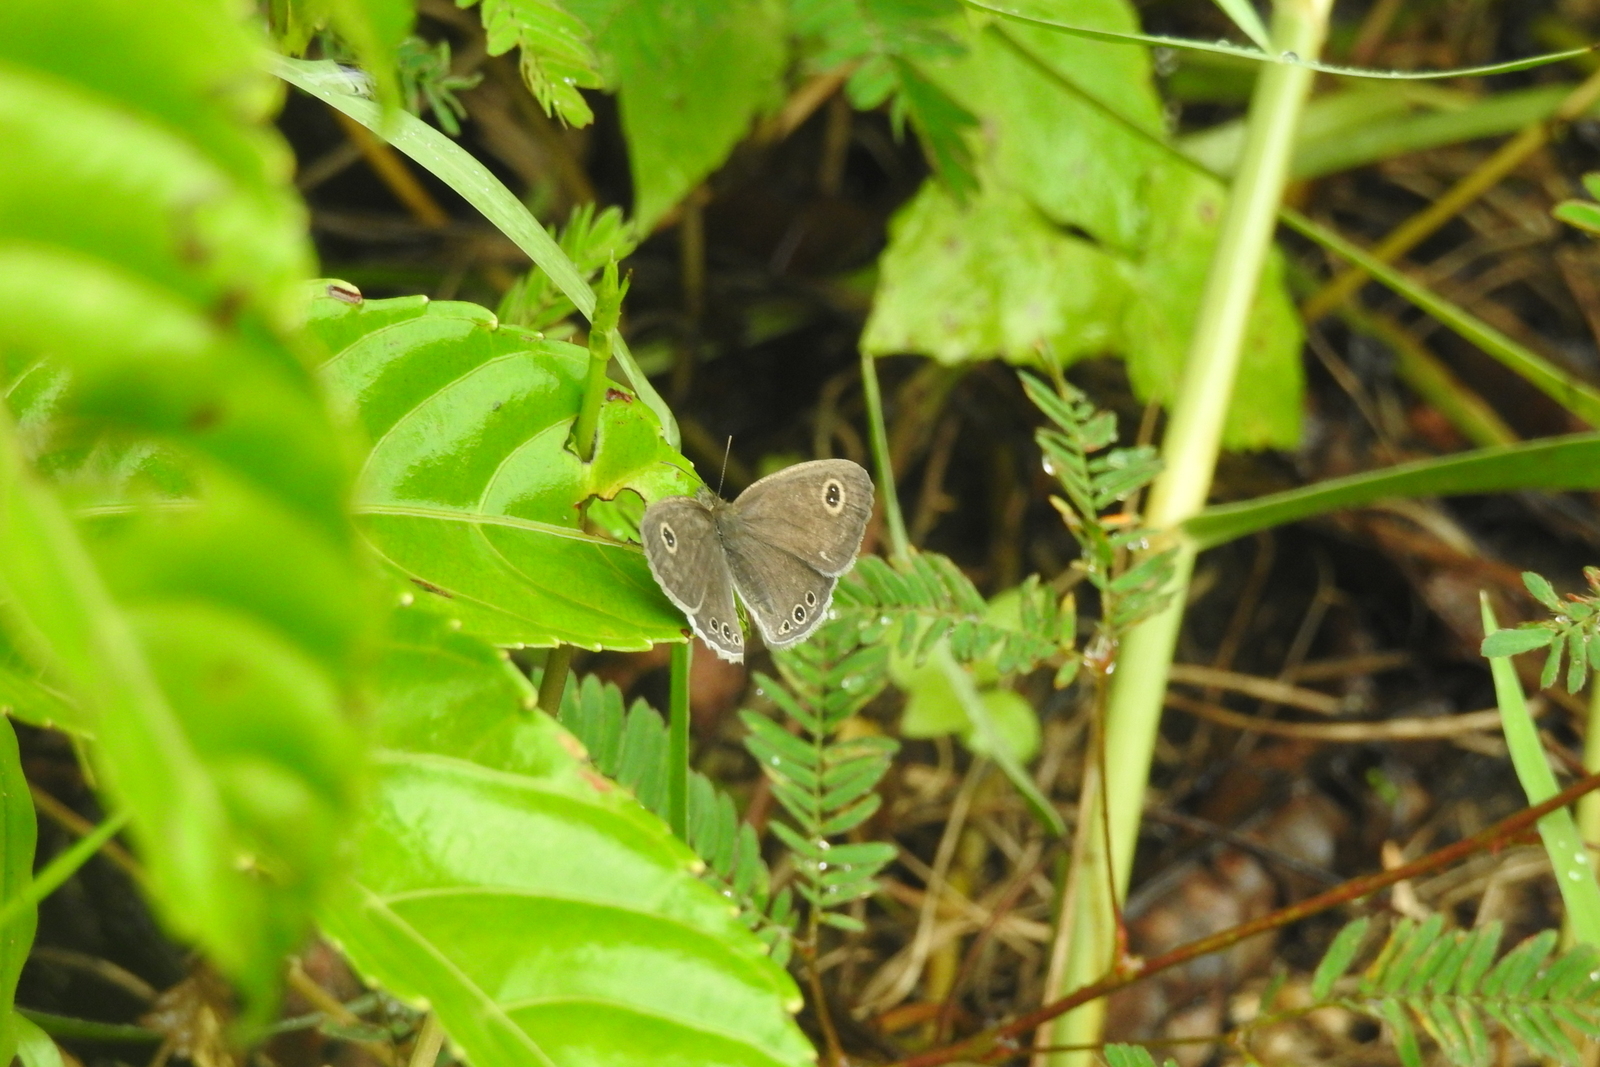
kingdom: Animalia
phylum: Arthropoda
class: Insecta
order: Lepidoptera
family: Nymphalidae
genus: Ypthima
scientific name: Ypthima huebneri
